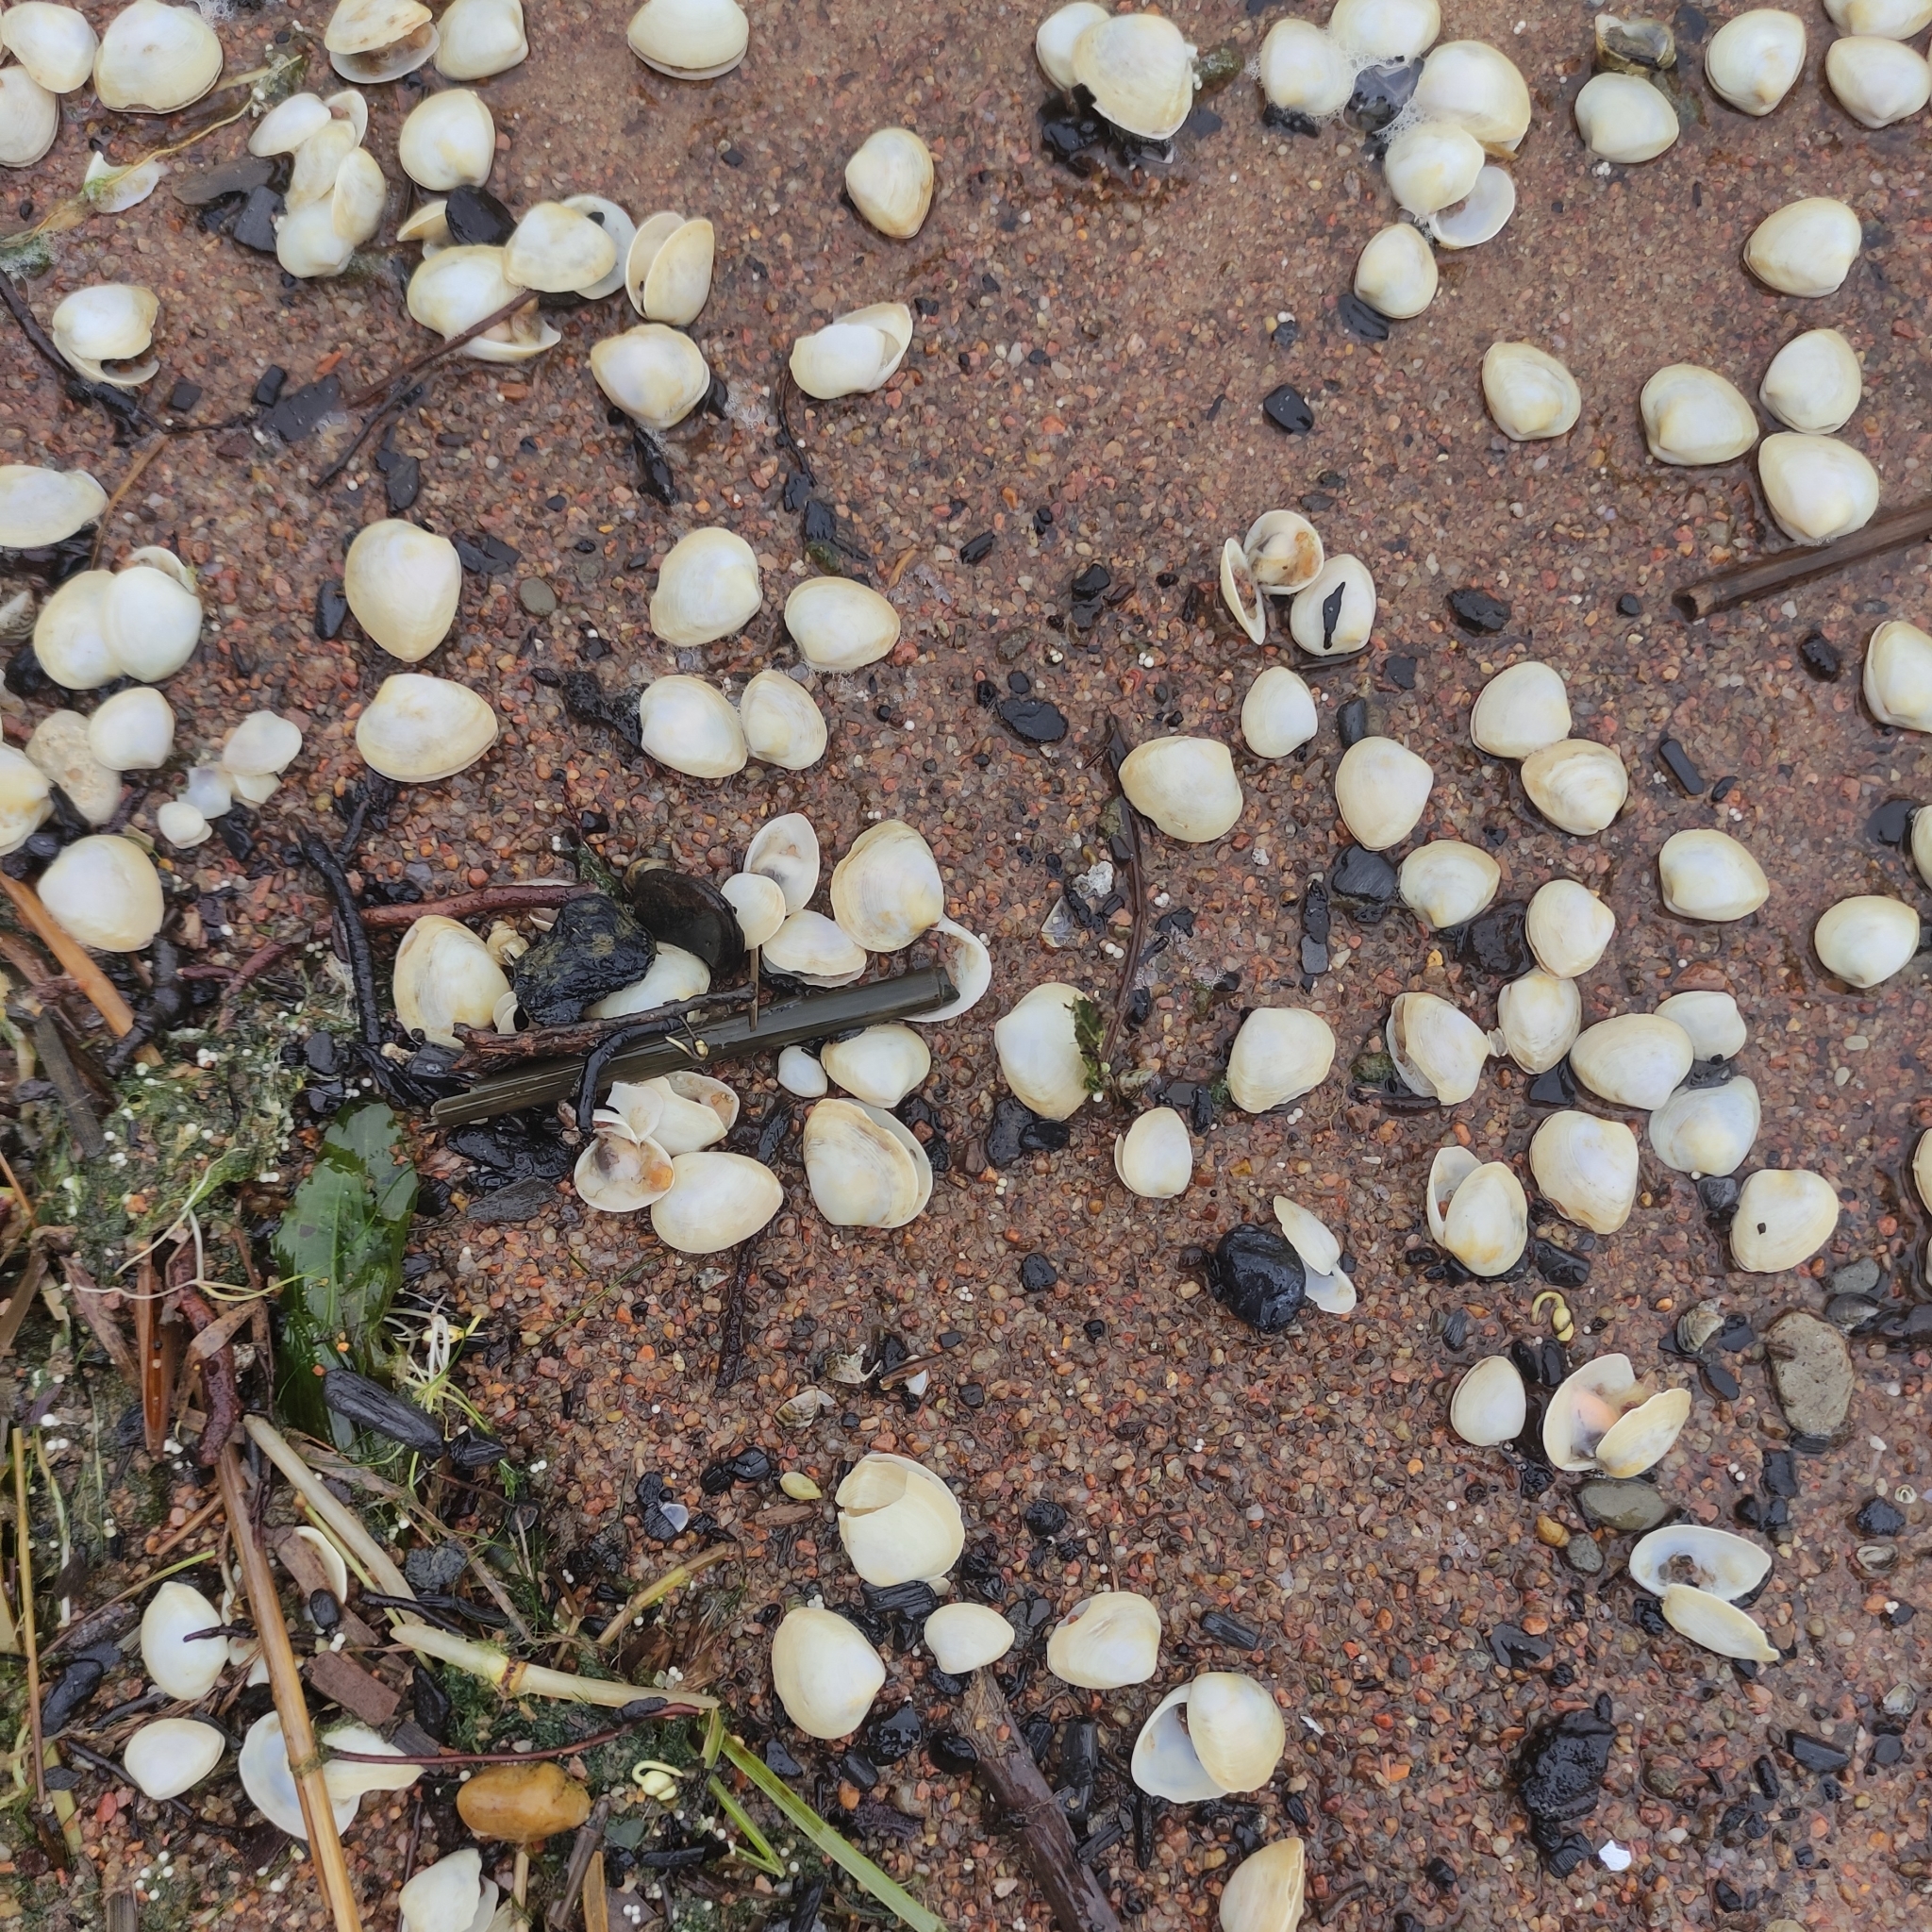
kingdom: Animalia
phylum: Mollusca
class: Bivalvia
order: Venerida
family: Mactridae
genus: Rangia
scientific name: Rangia cuneata
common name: Atlantic rangia
